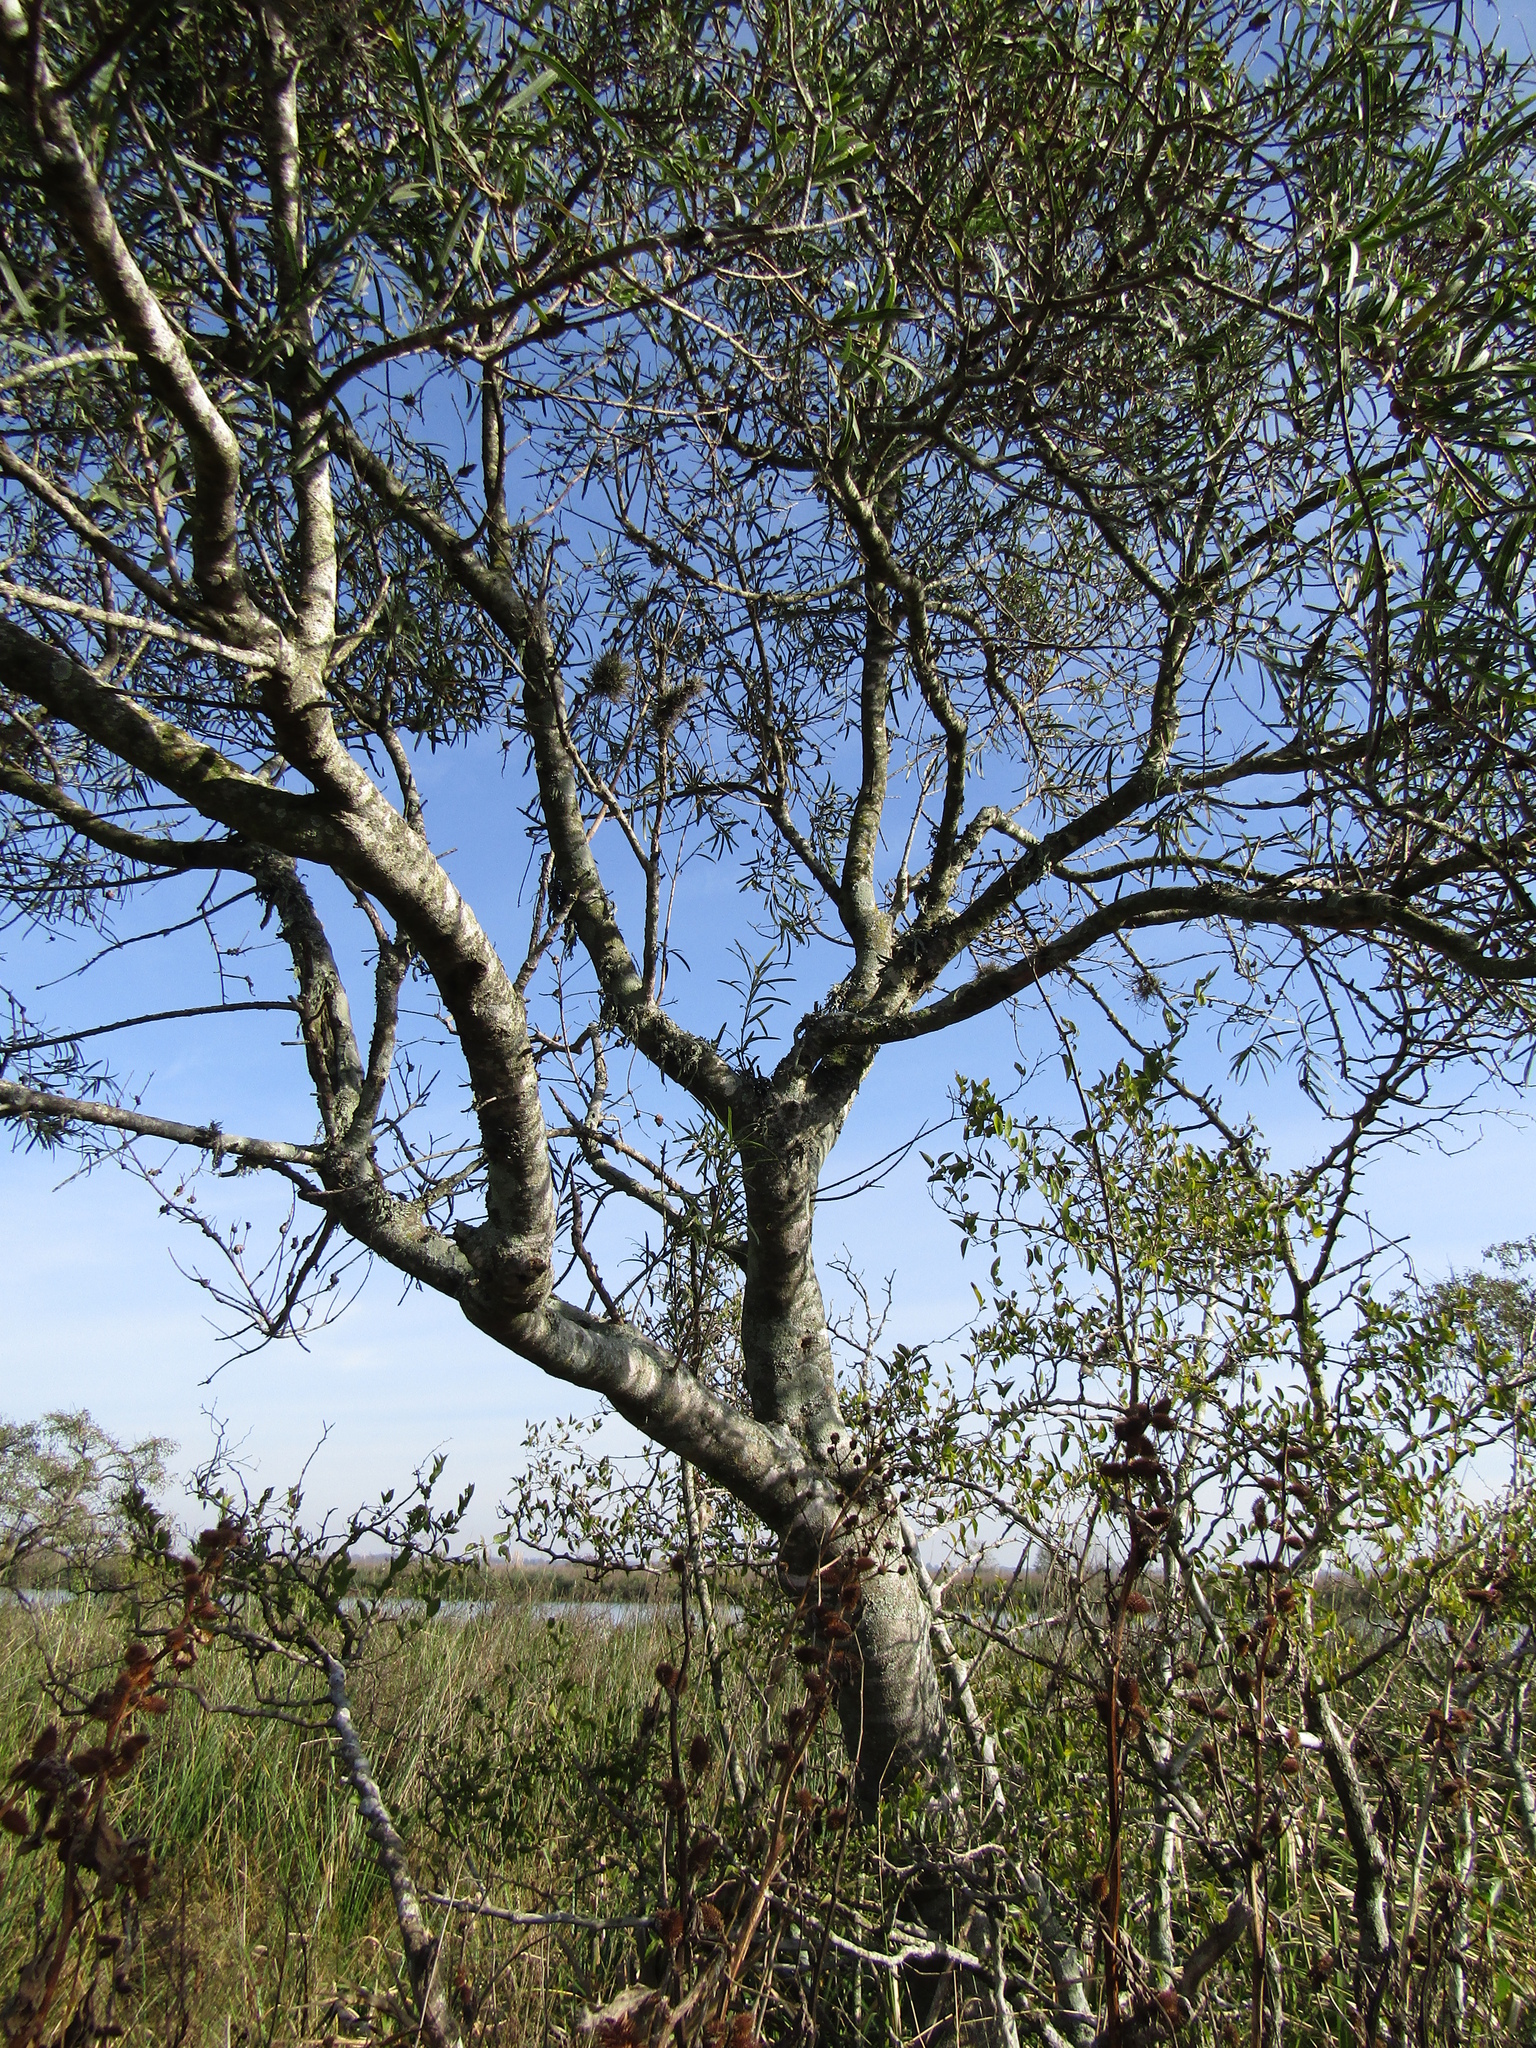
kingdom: Plantae
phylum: Tracheophyta
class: Magnoliopsida
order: Malpighiales
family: Euphorbiaceae
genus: Sapium
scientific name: Sapium haematospermum
